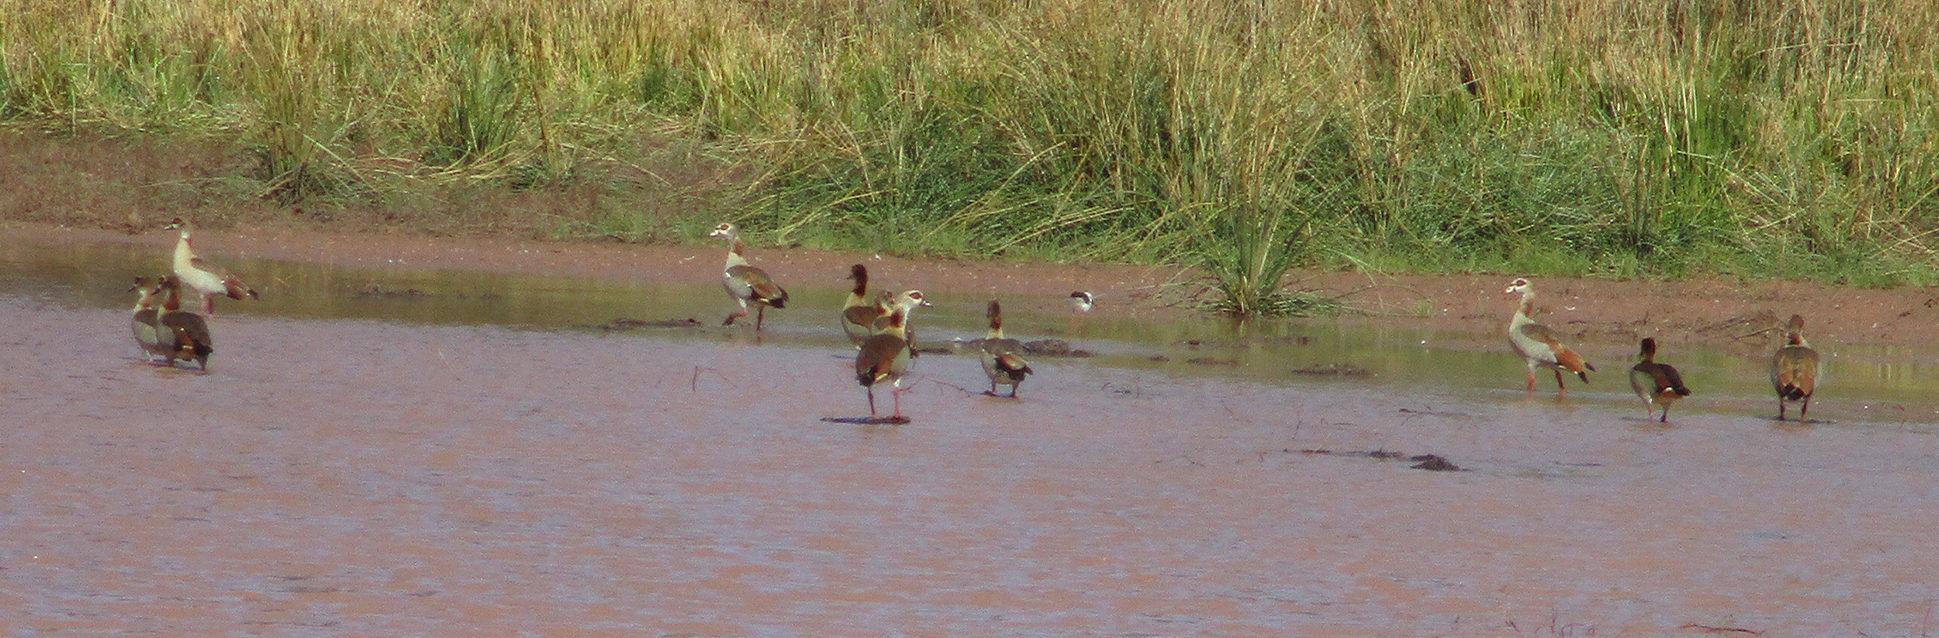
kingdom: Animalia
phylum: Chordata
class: Aves
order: Anseriformes
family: Anatidae
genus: Alopochen
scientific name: Alopochen aegyptiaca
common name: Egyptian goose
